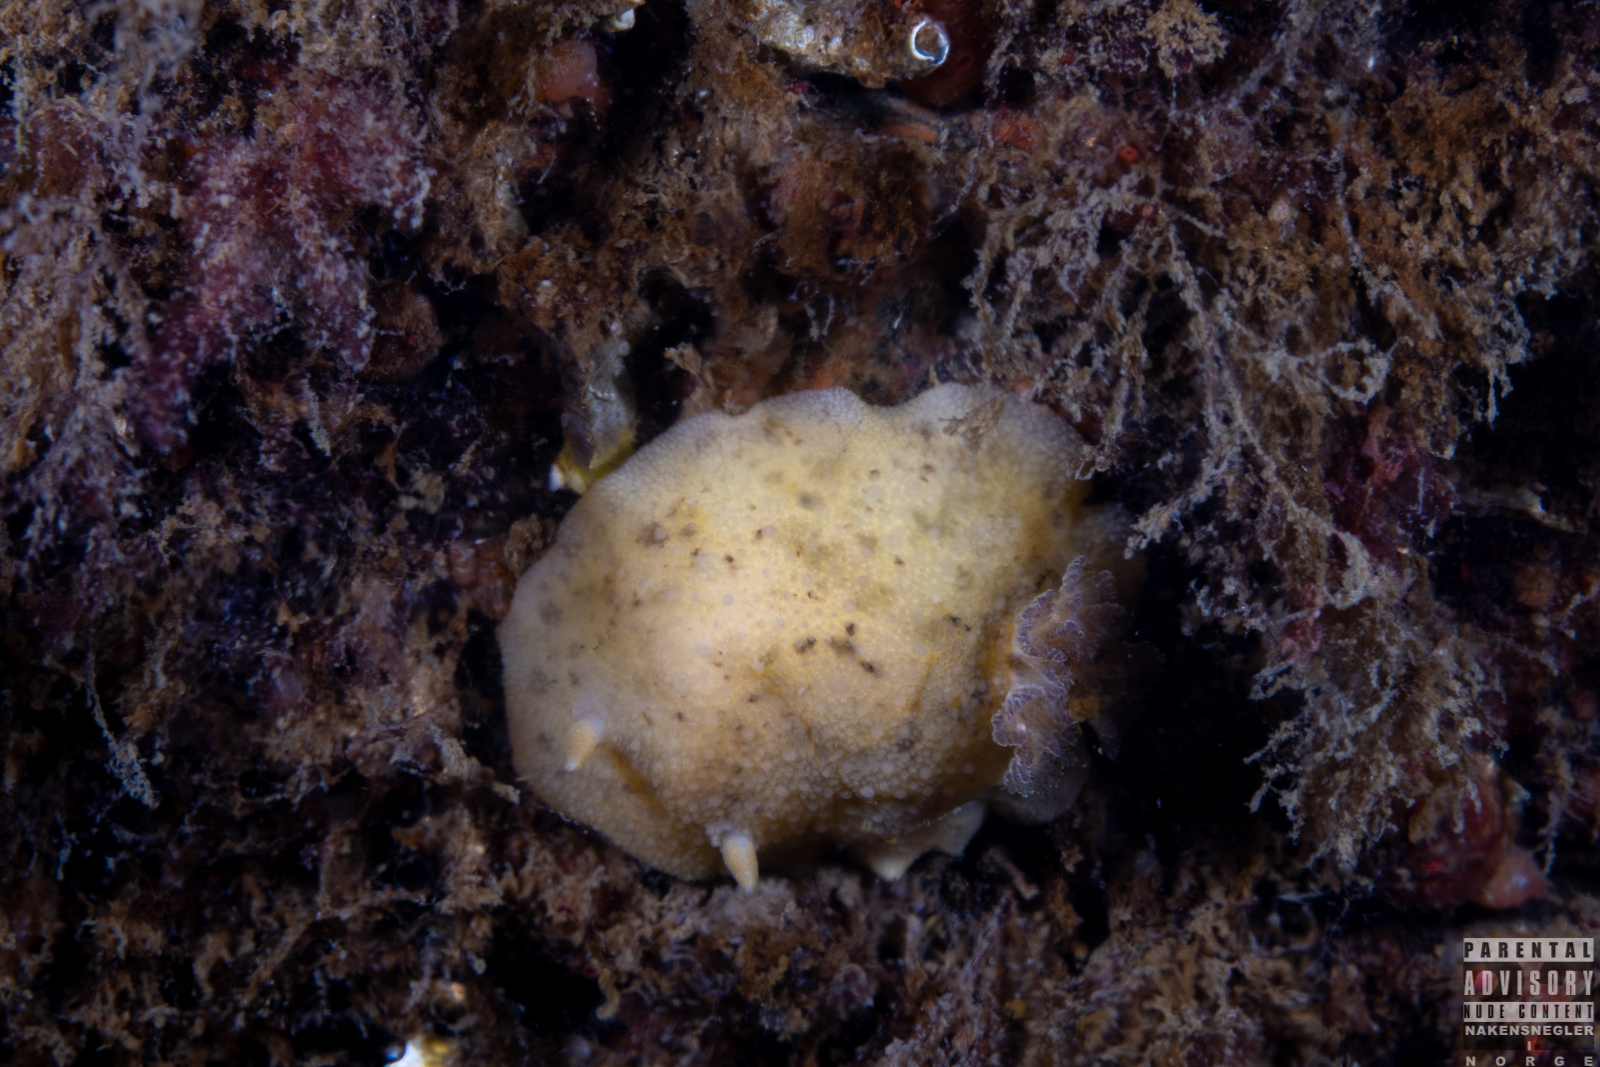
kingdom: Animalia
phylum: Mollusca
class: Gastropoda
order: Nudibranchia
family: Dorididae
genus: Doris
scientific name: Doris pseudoargus
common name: Sea lemon
